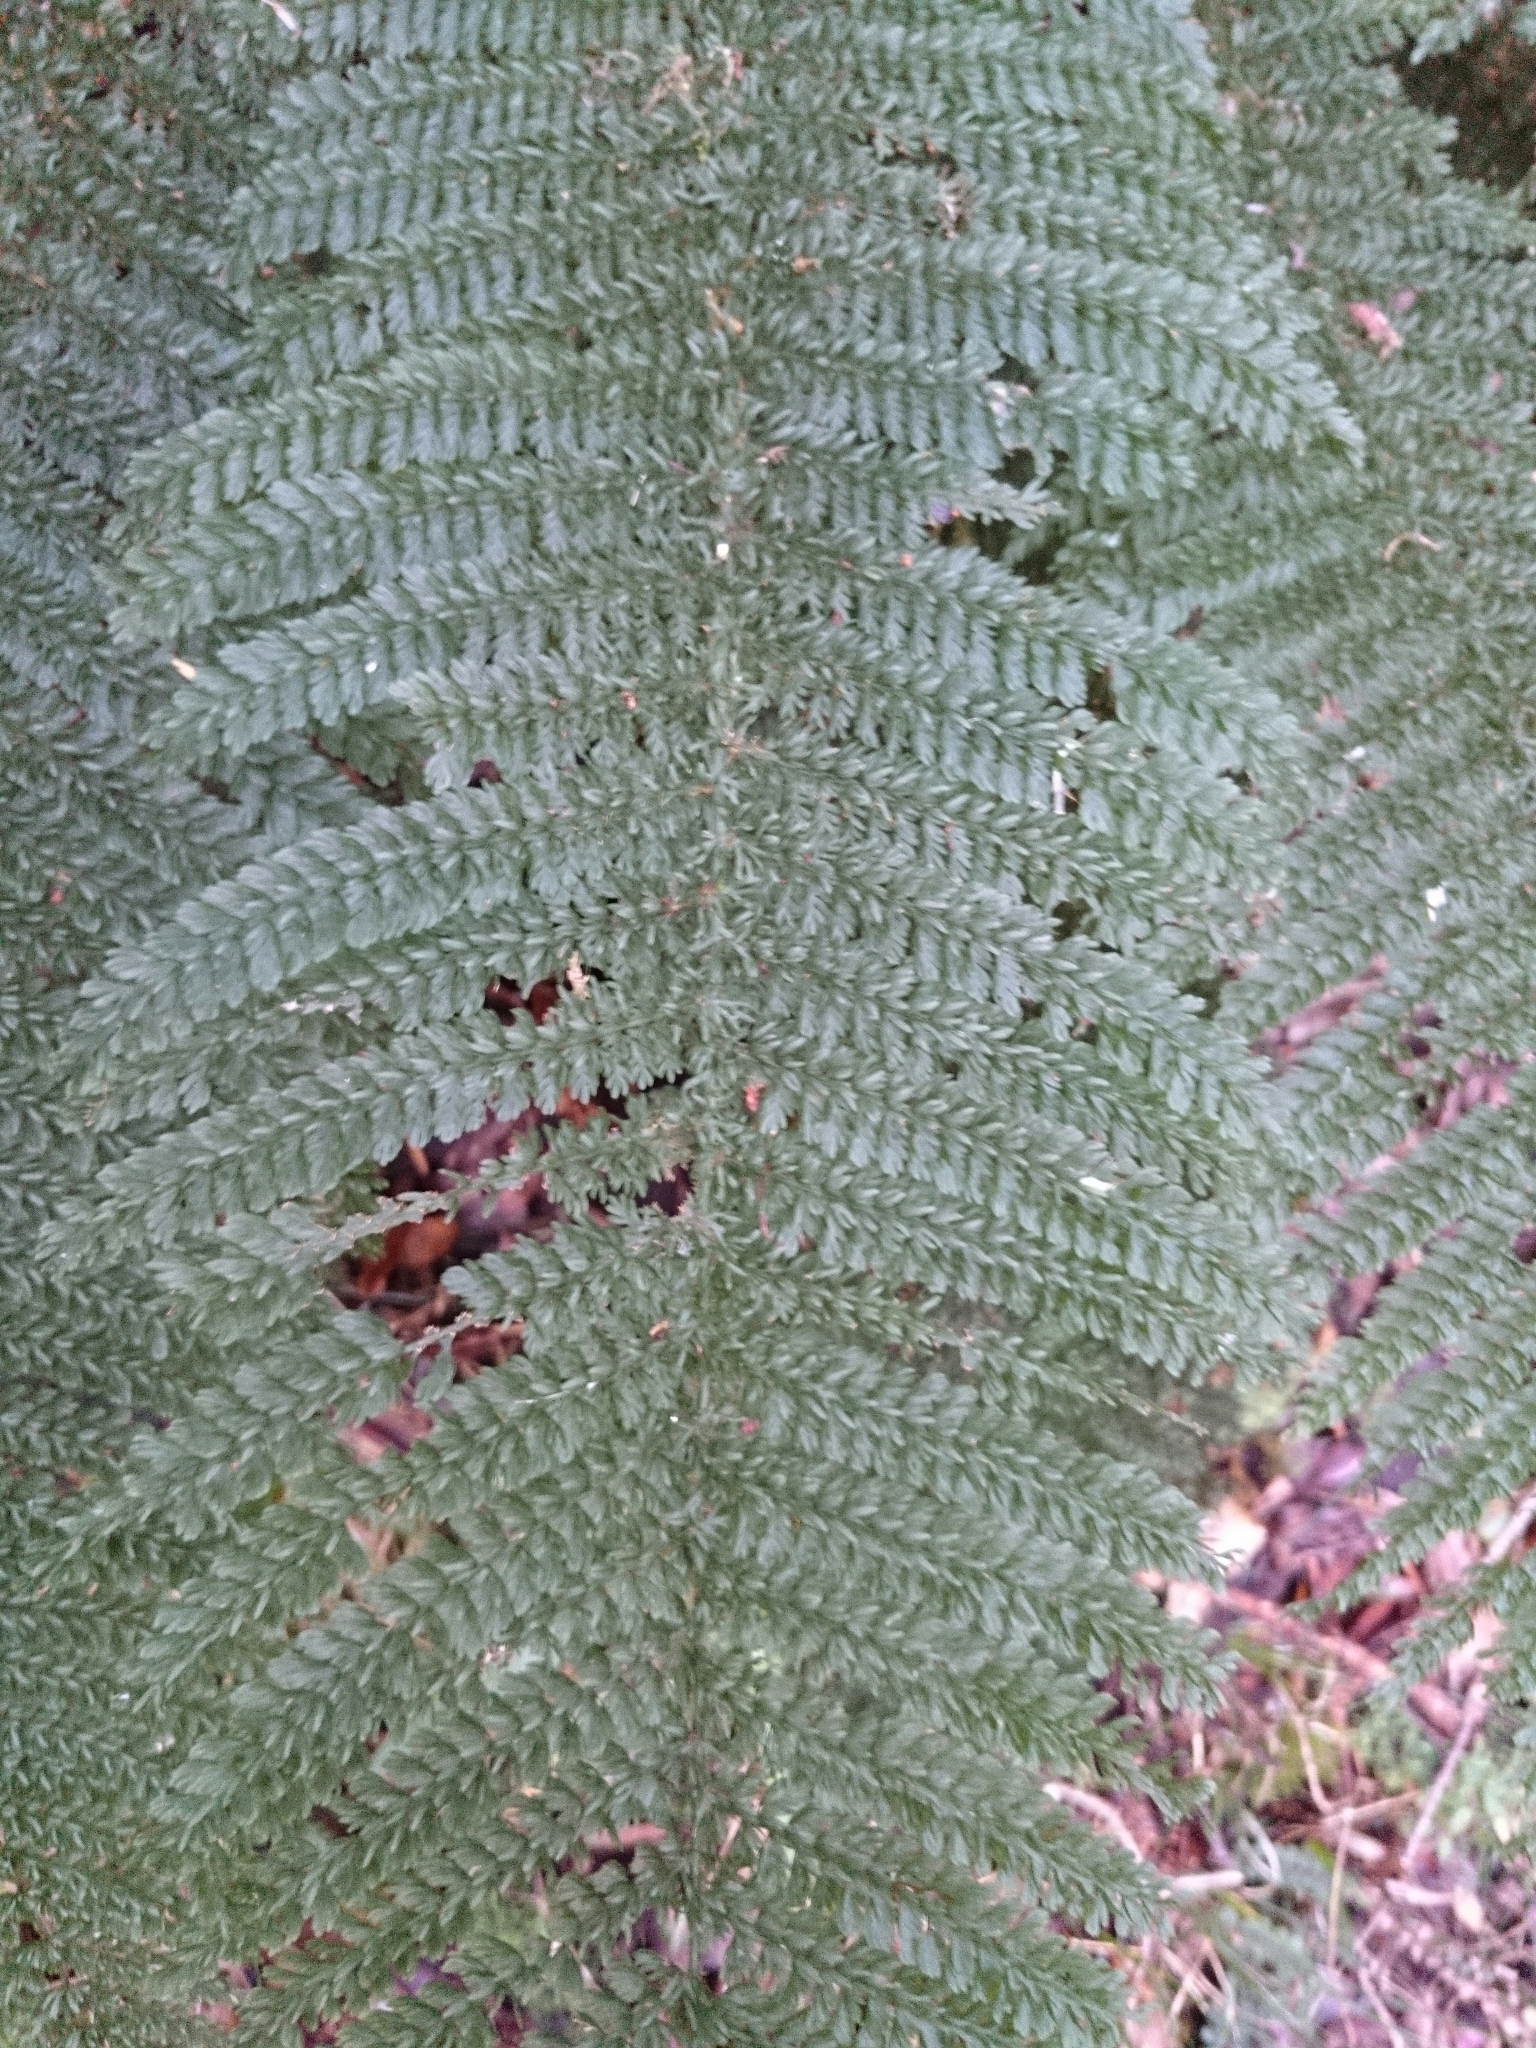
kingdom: Plantae
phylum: Tracheophyta
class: Polypodiopsida
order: Osmundales
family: Osmundaceae
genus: Leptopteris
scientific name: Leptopteris superba
